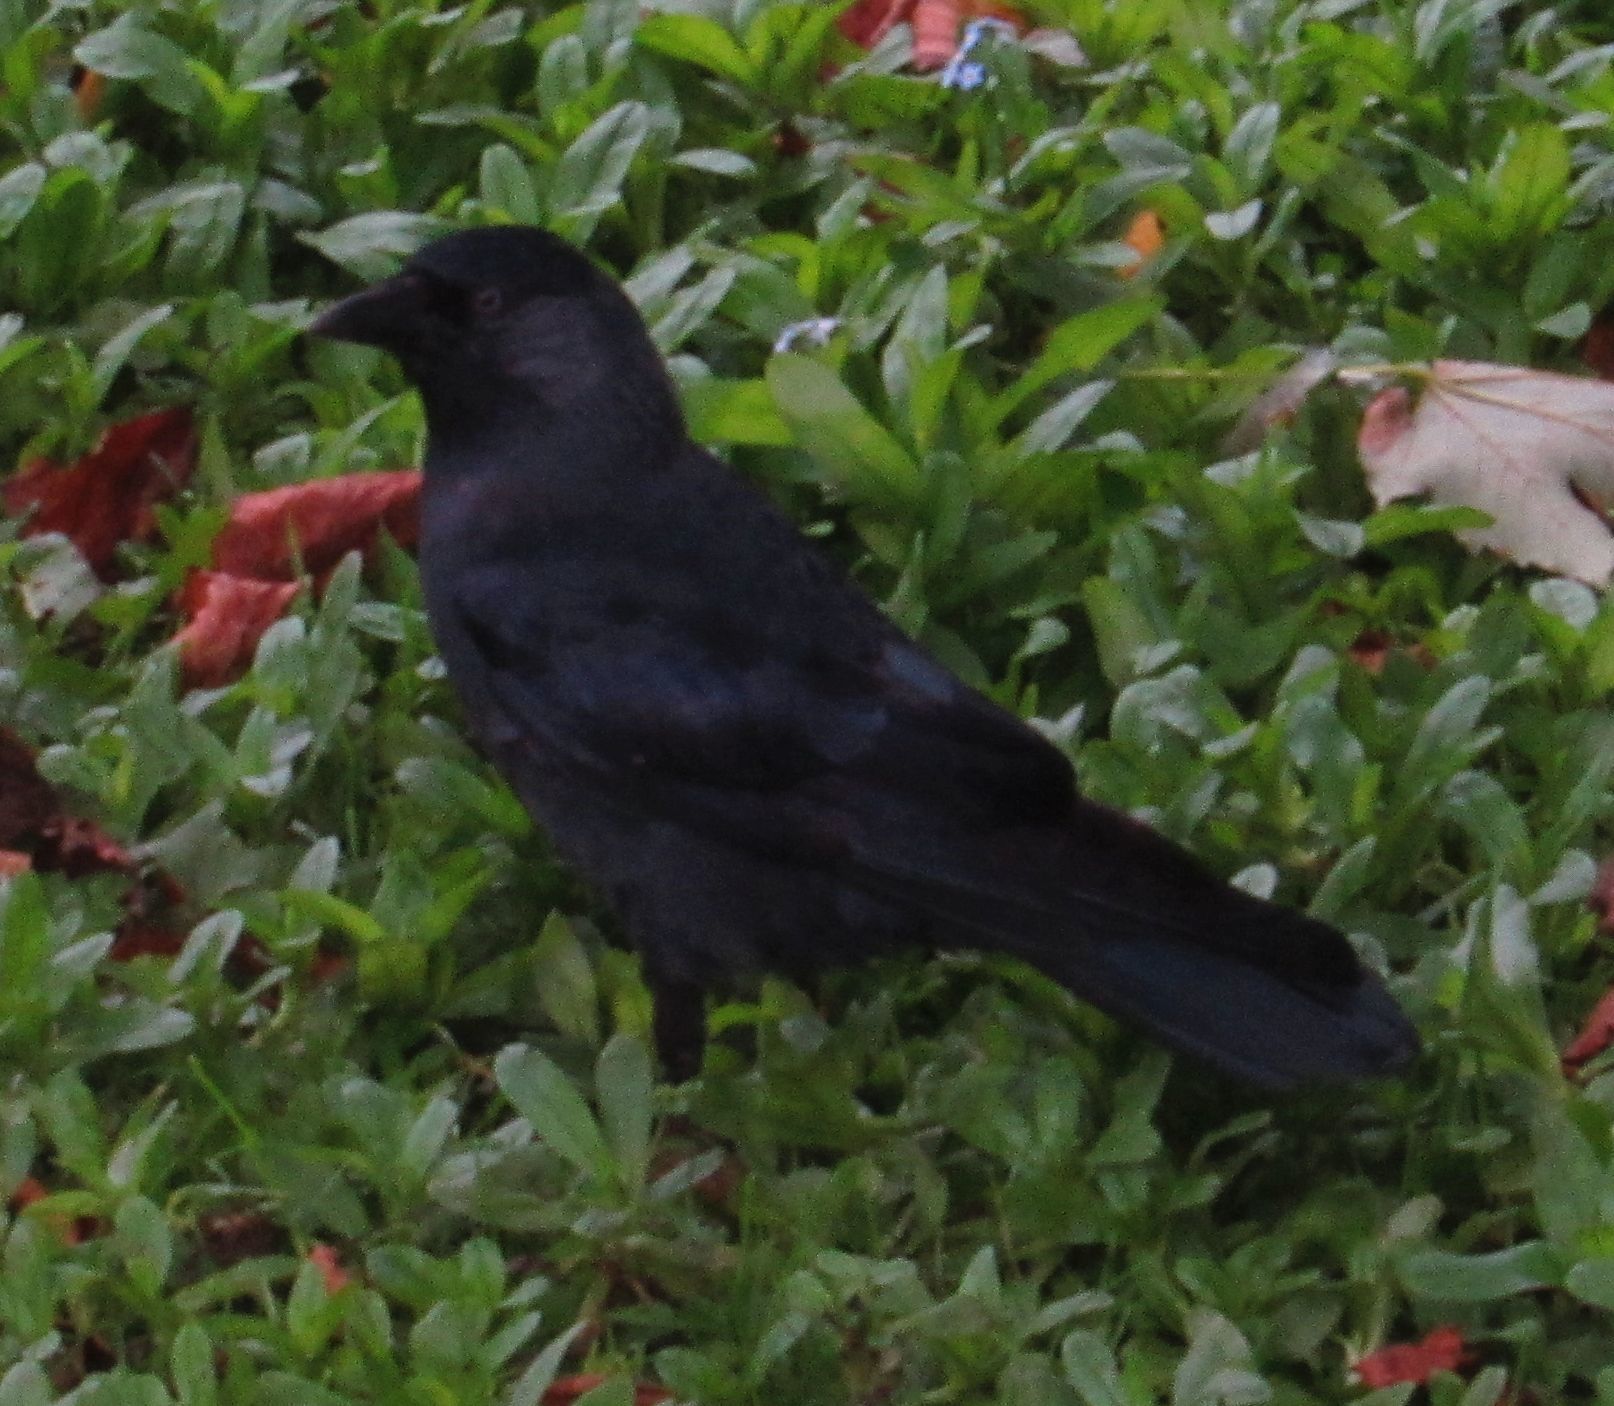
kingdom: Animalia
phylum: Chordata
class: Aves
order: Passeriformes
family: Corvidae
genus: Coloeus
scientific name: Coloeus monedula
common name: Western jackdaw
